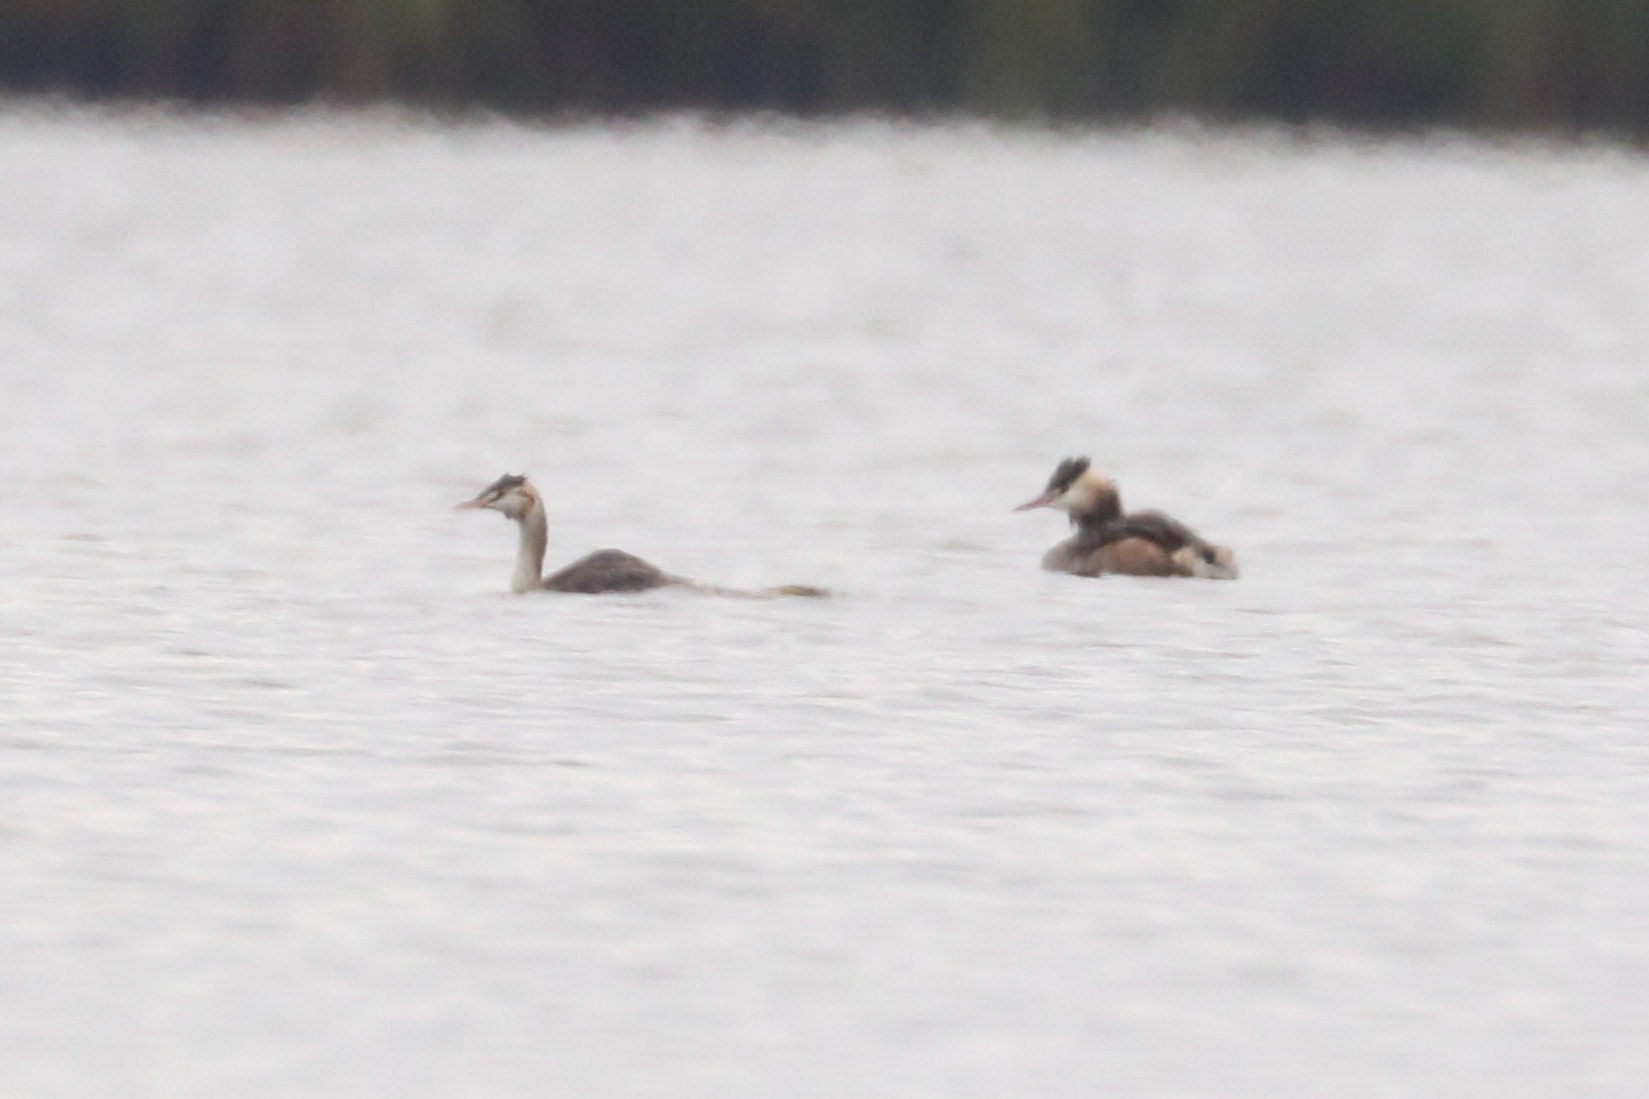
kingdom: Animalia
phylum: Chordata
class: Aves
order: Podicipediformes
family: Podicipedidae
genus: Podiceps
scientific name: Podiceps cristatus
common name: Great crested grebe
